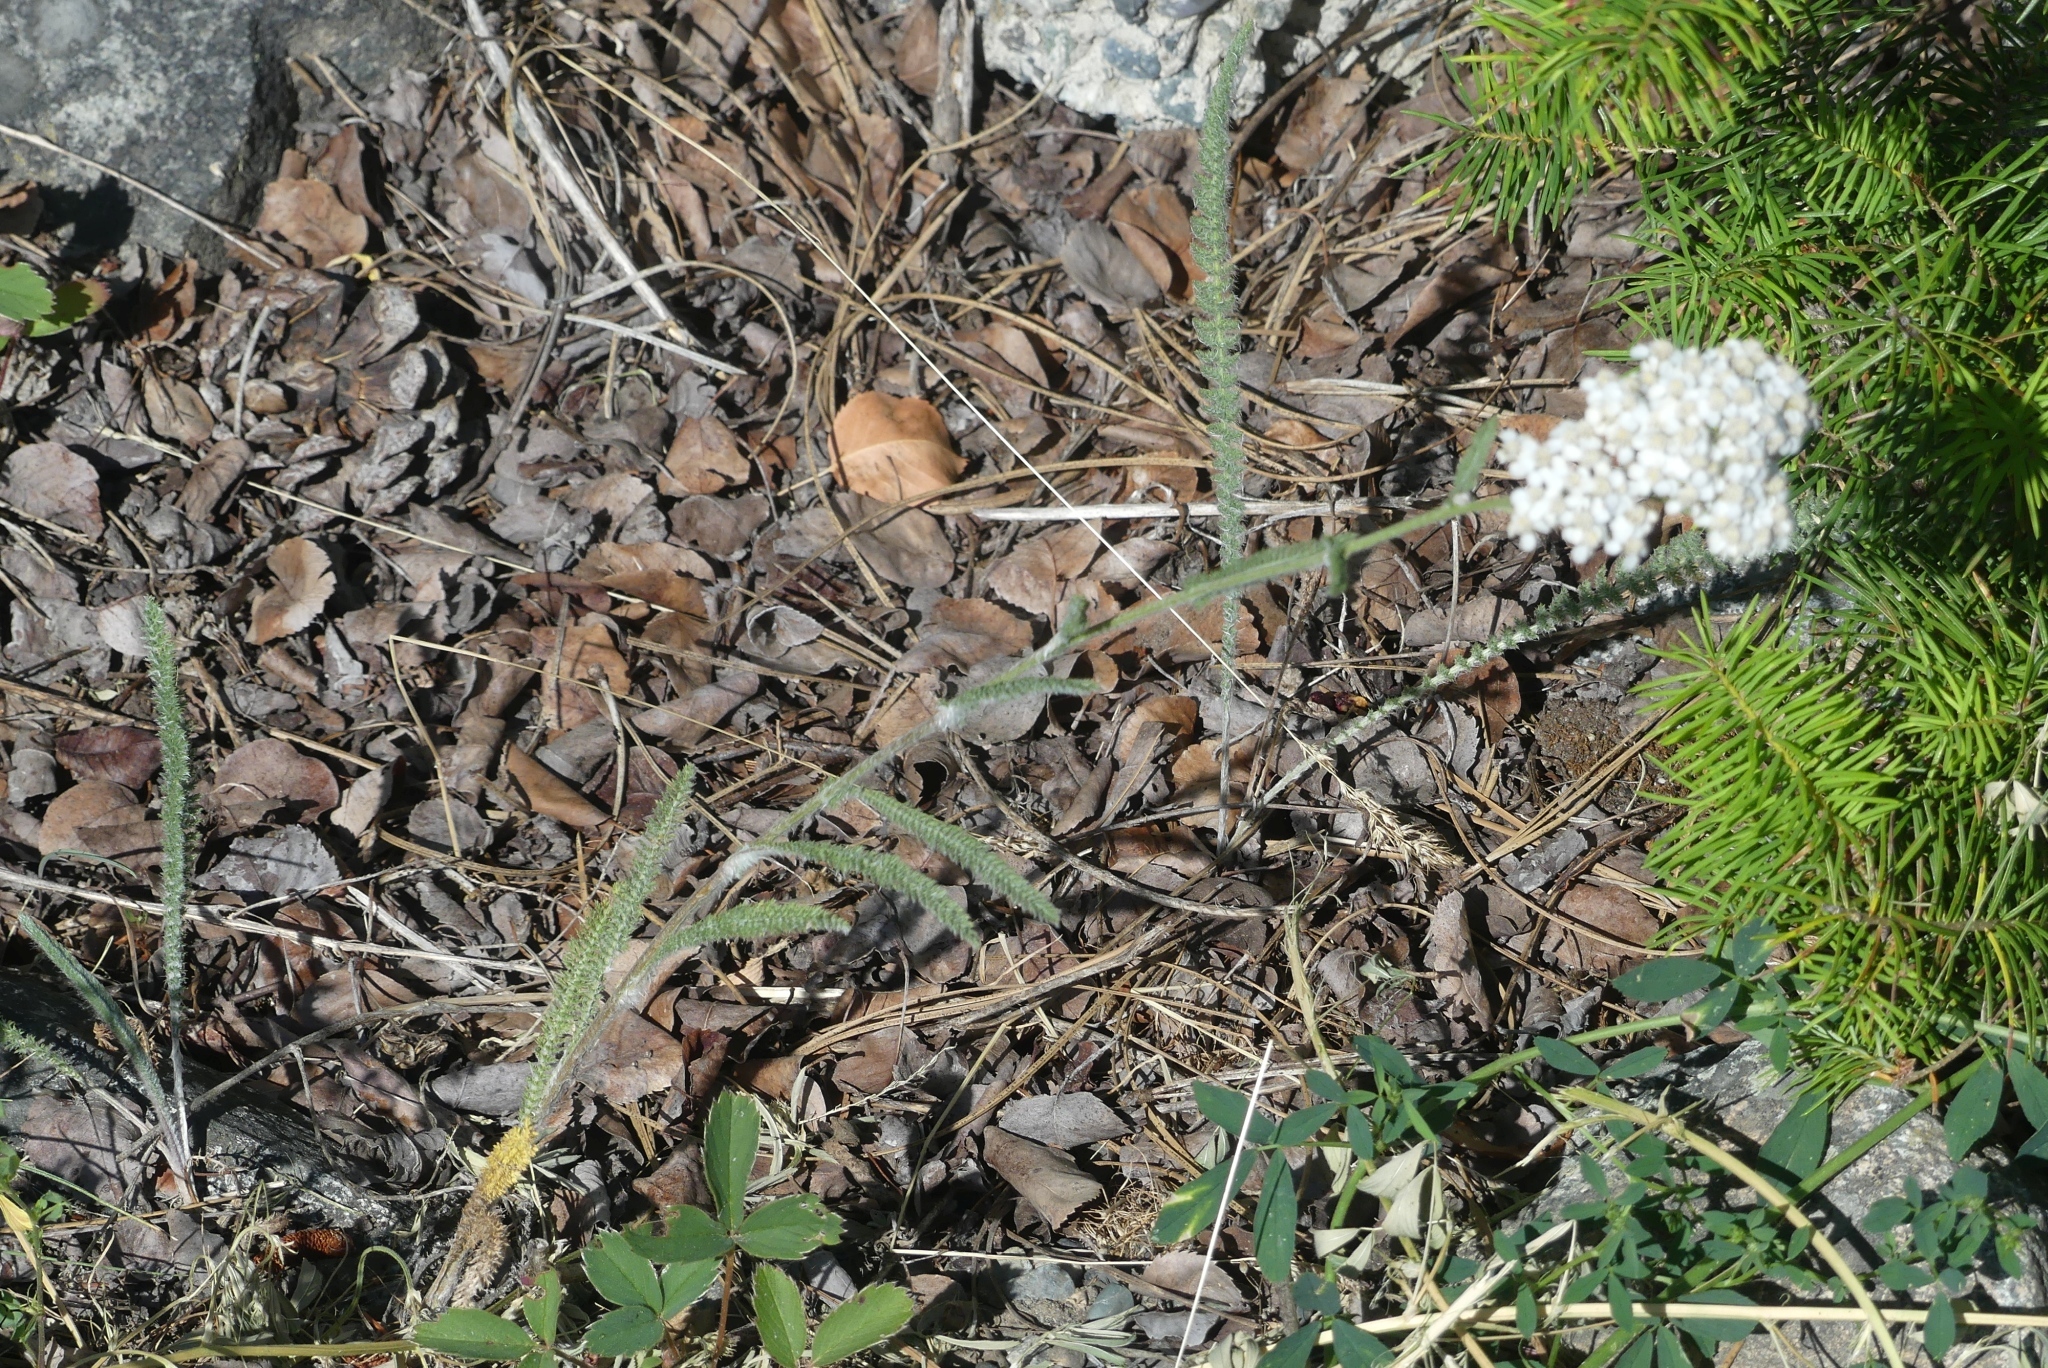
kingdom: Plantae
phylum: Tracheophyta
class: Magnoliopsida
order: Asterales
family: Asteraceae
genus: Achillea
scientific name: Achillea millefolium
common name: Yarrow
